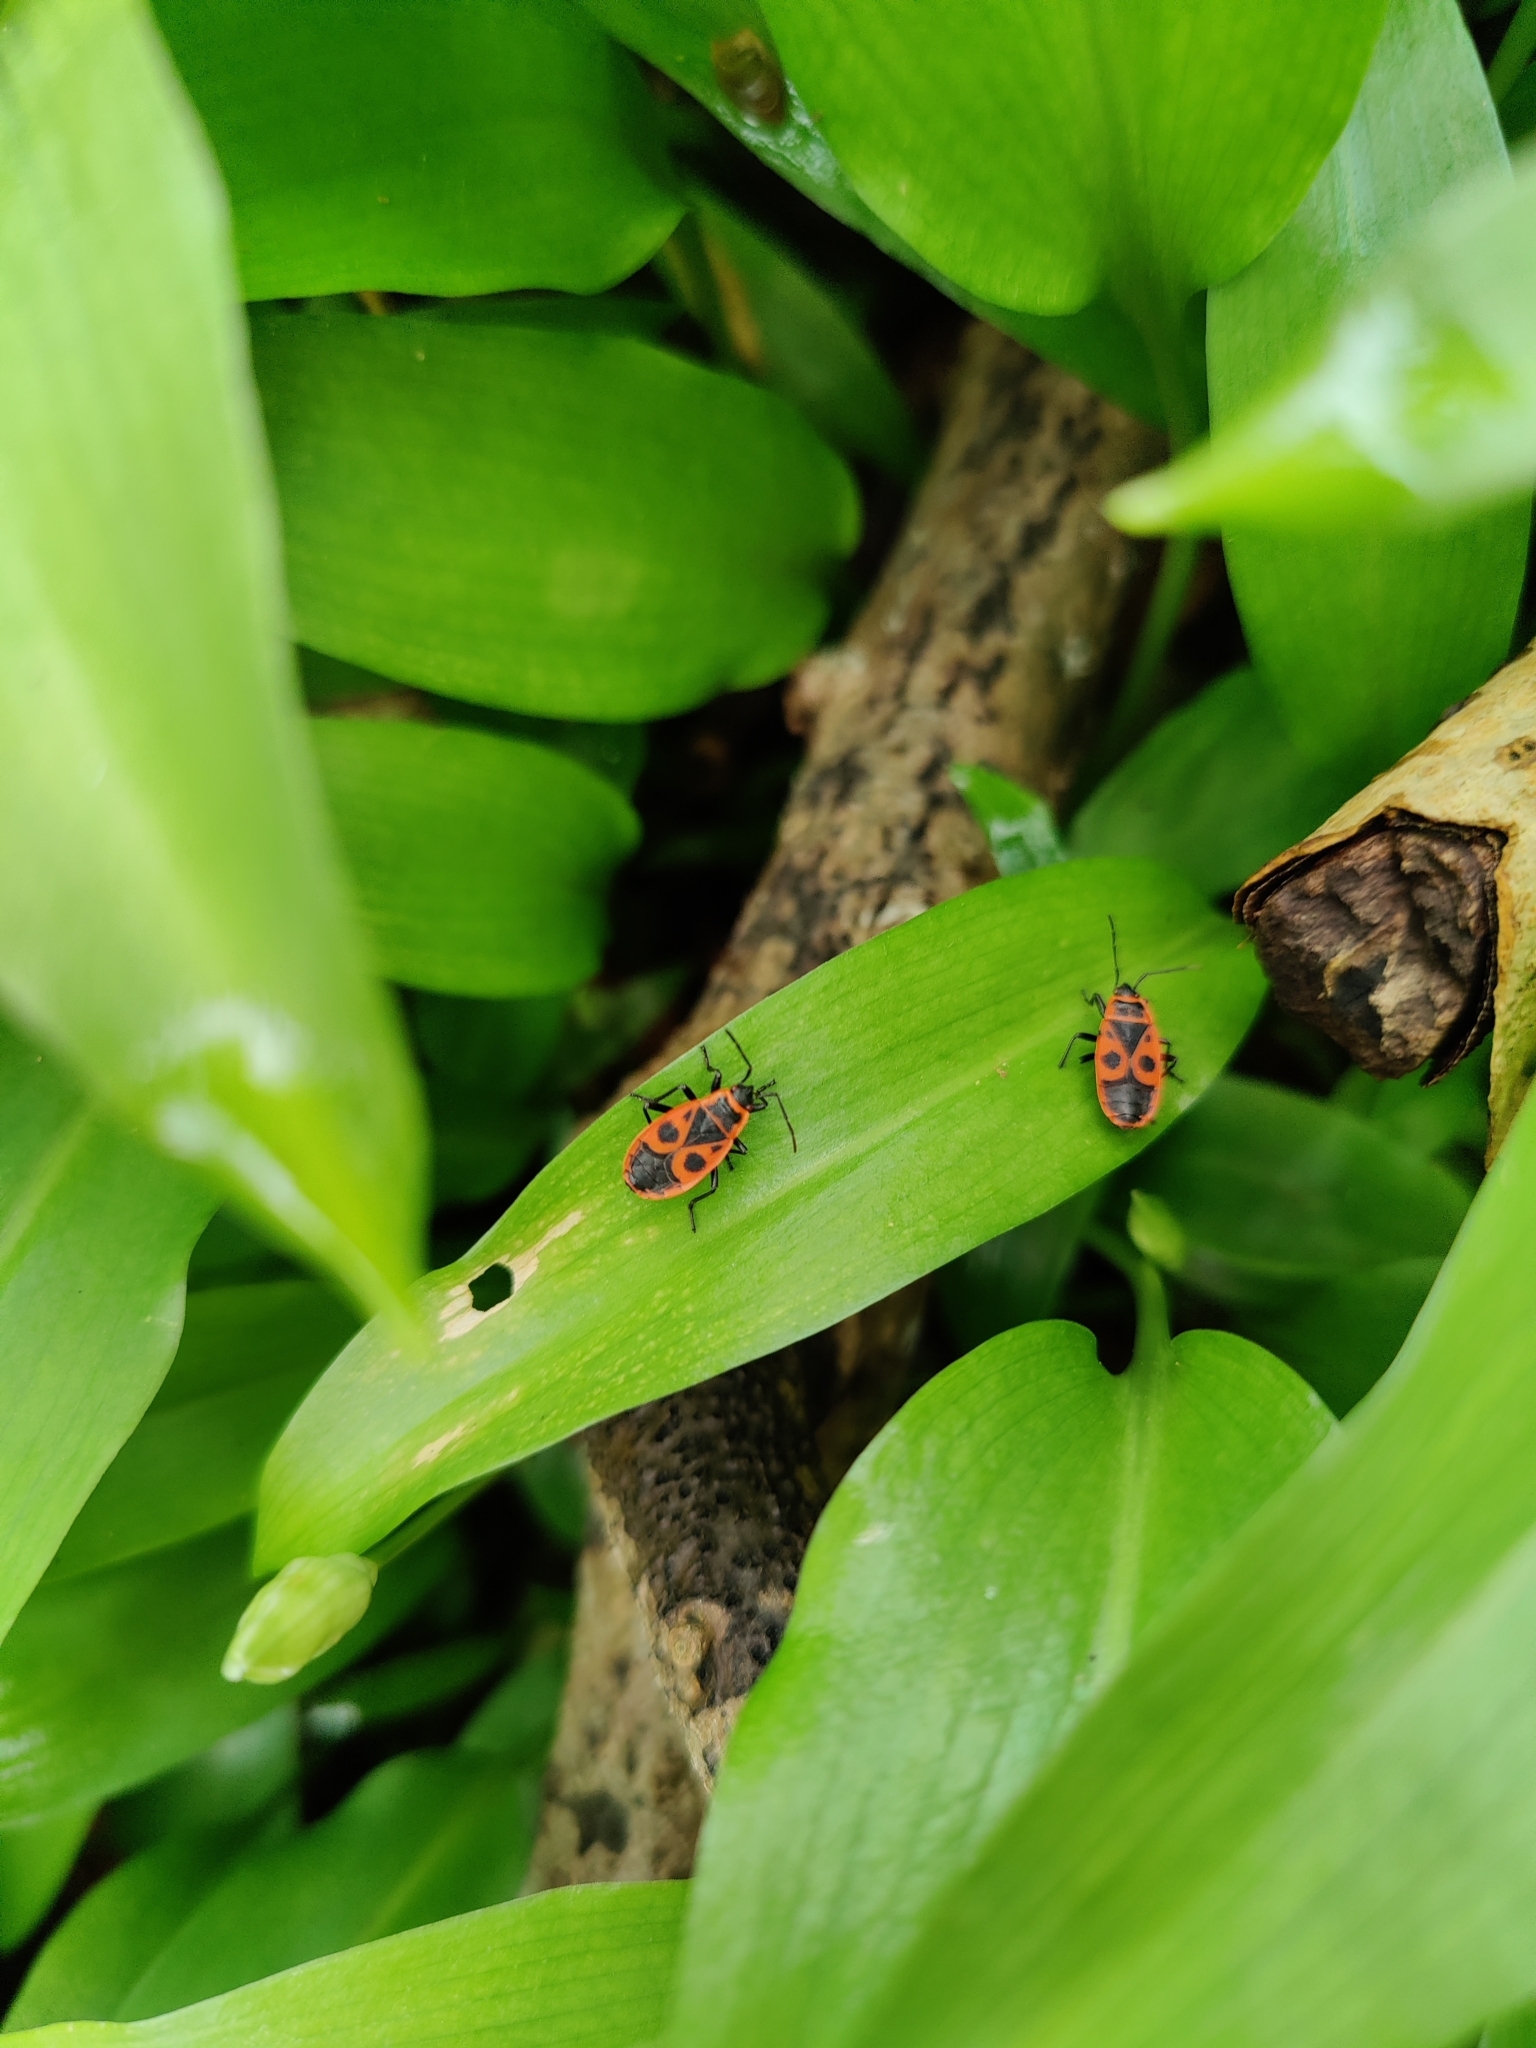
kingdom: Animalia
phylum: Arthropoda
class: Insecta
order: Hemiptera
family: Pyrrhocoridae
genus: Pyrrhocoris
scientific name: Pyrrhocoris apterus
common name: Firebug
